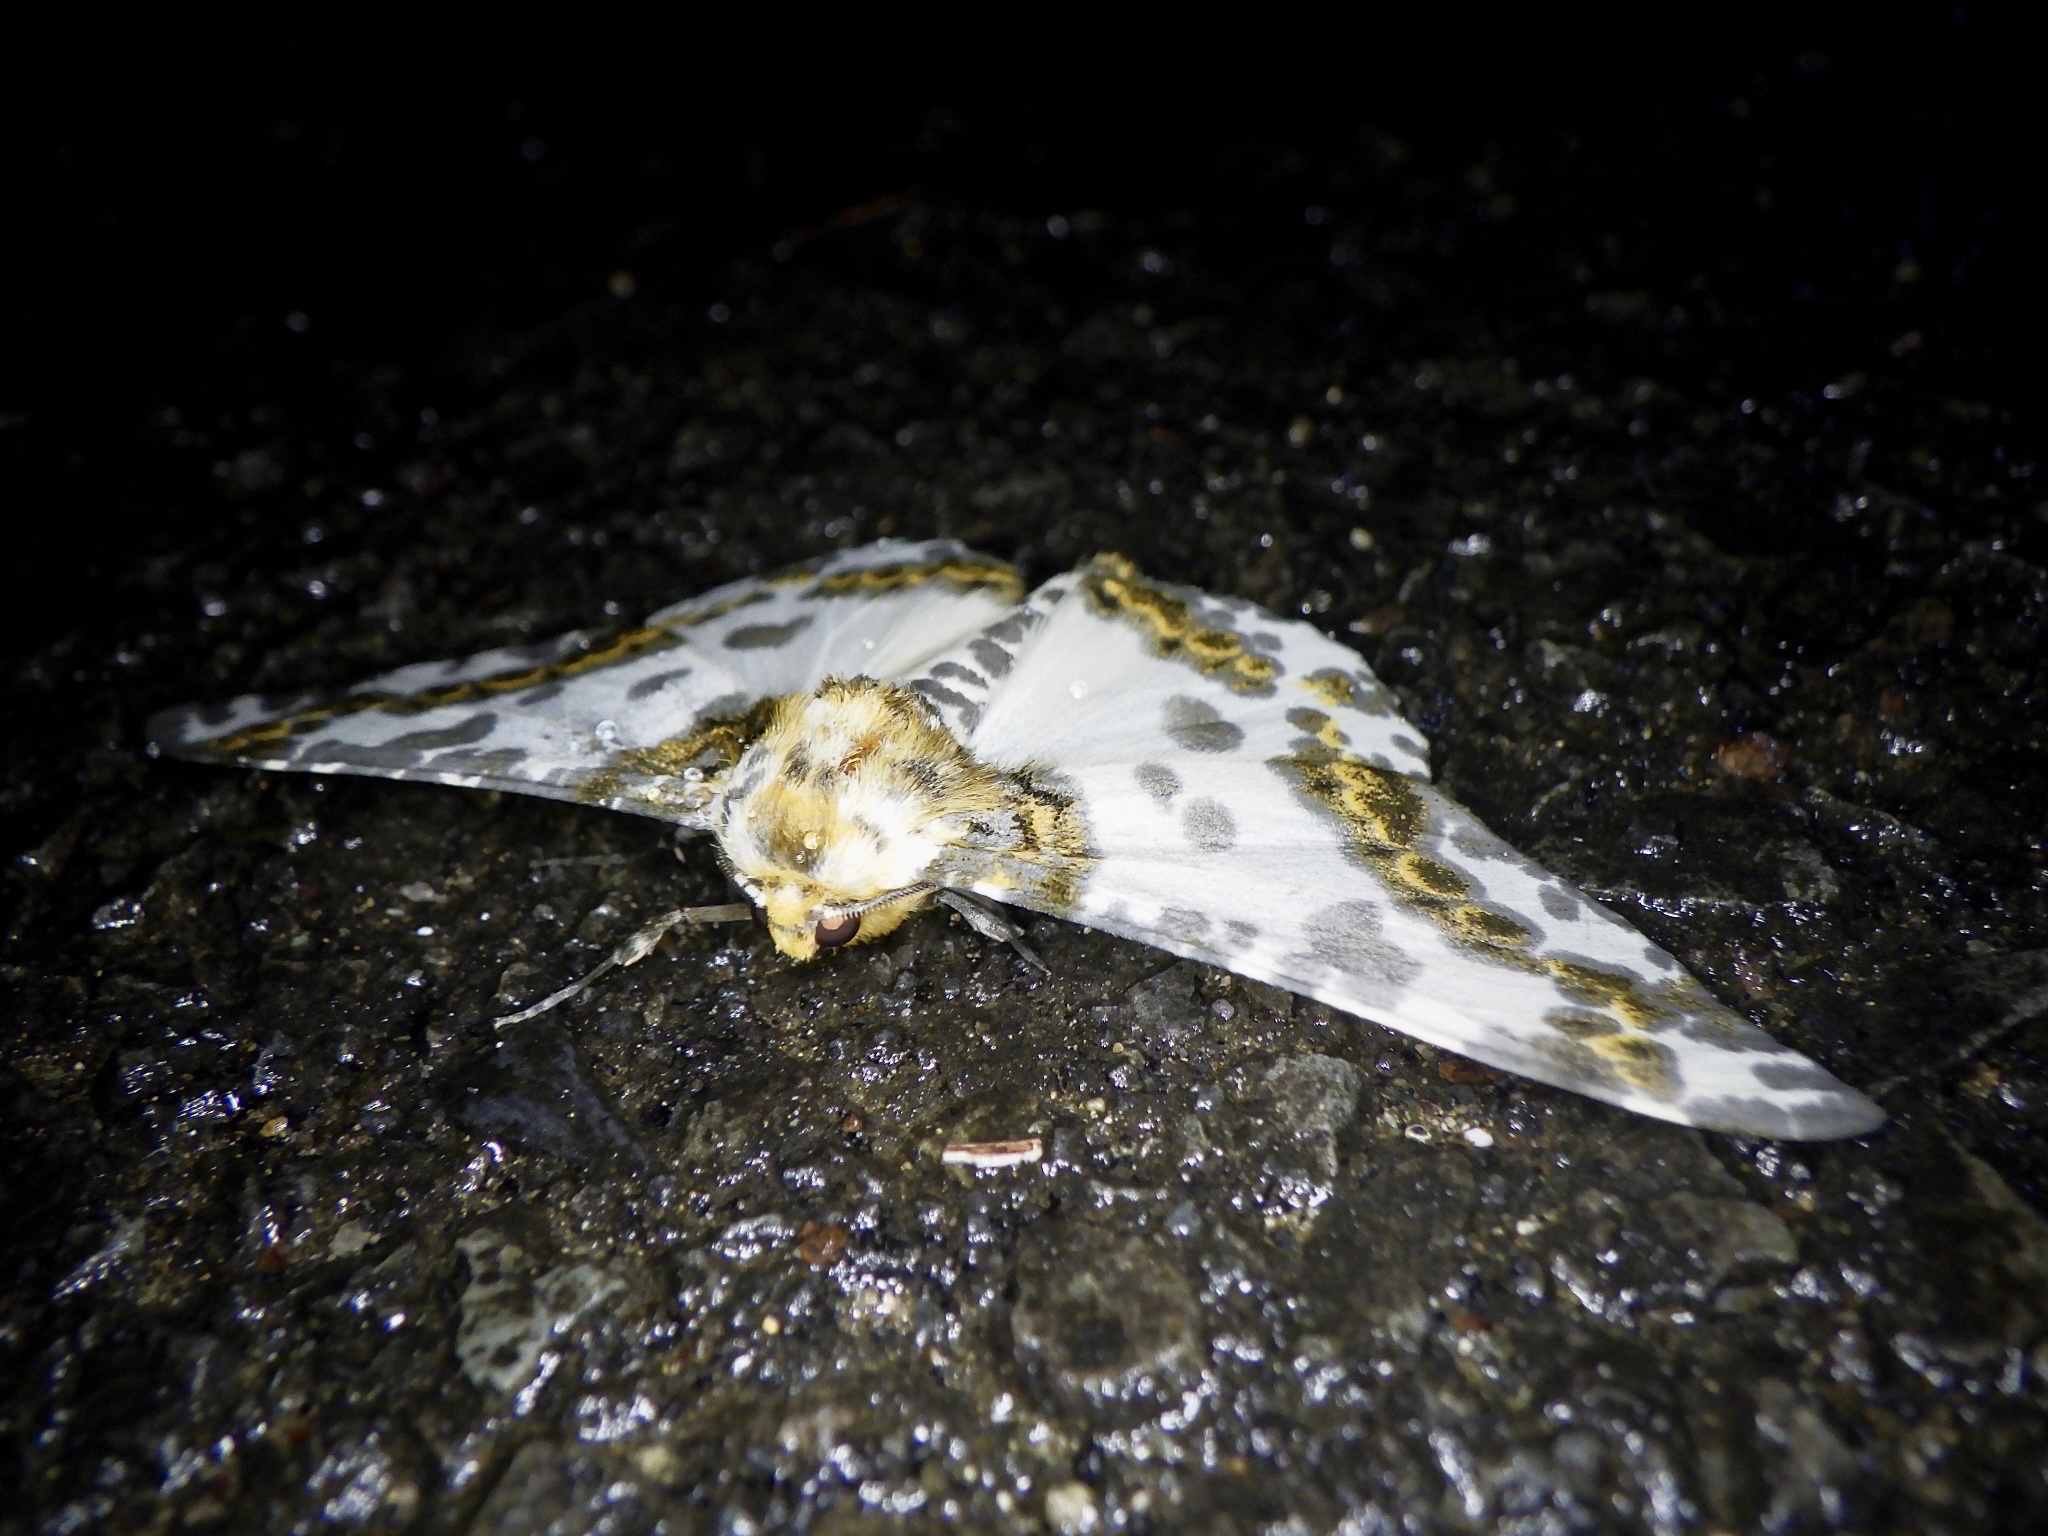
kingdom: Animalia
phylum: Arthropoda
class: Insecta
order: Lepidoptera
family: Geometridae
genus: Biston
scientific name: Biston panterinaria
